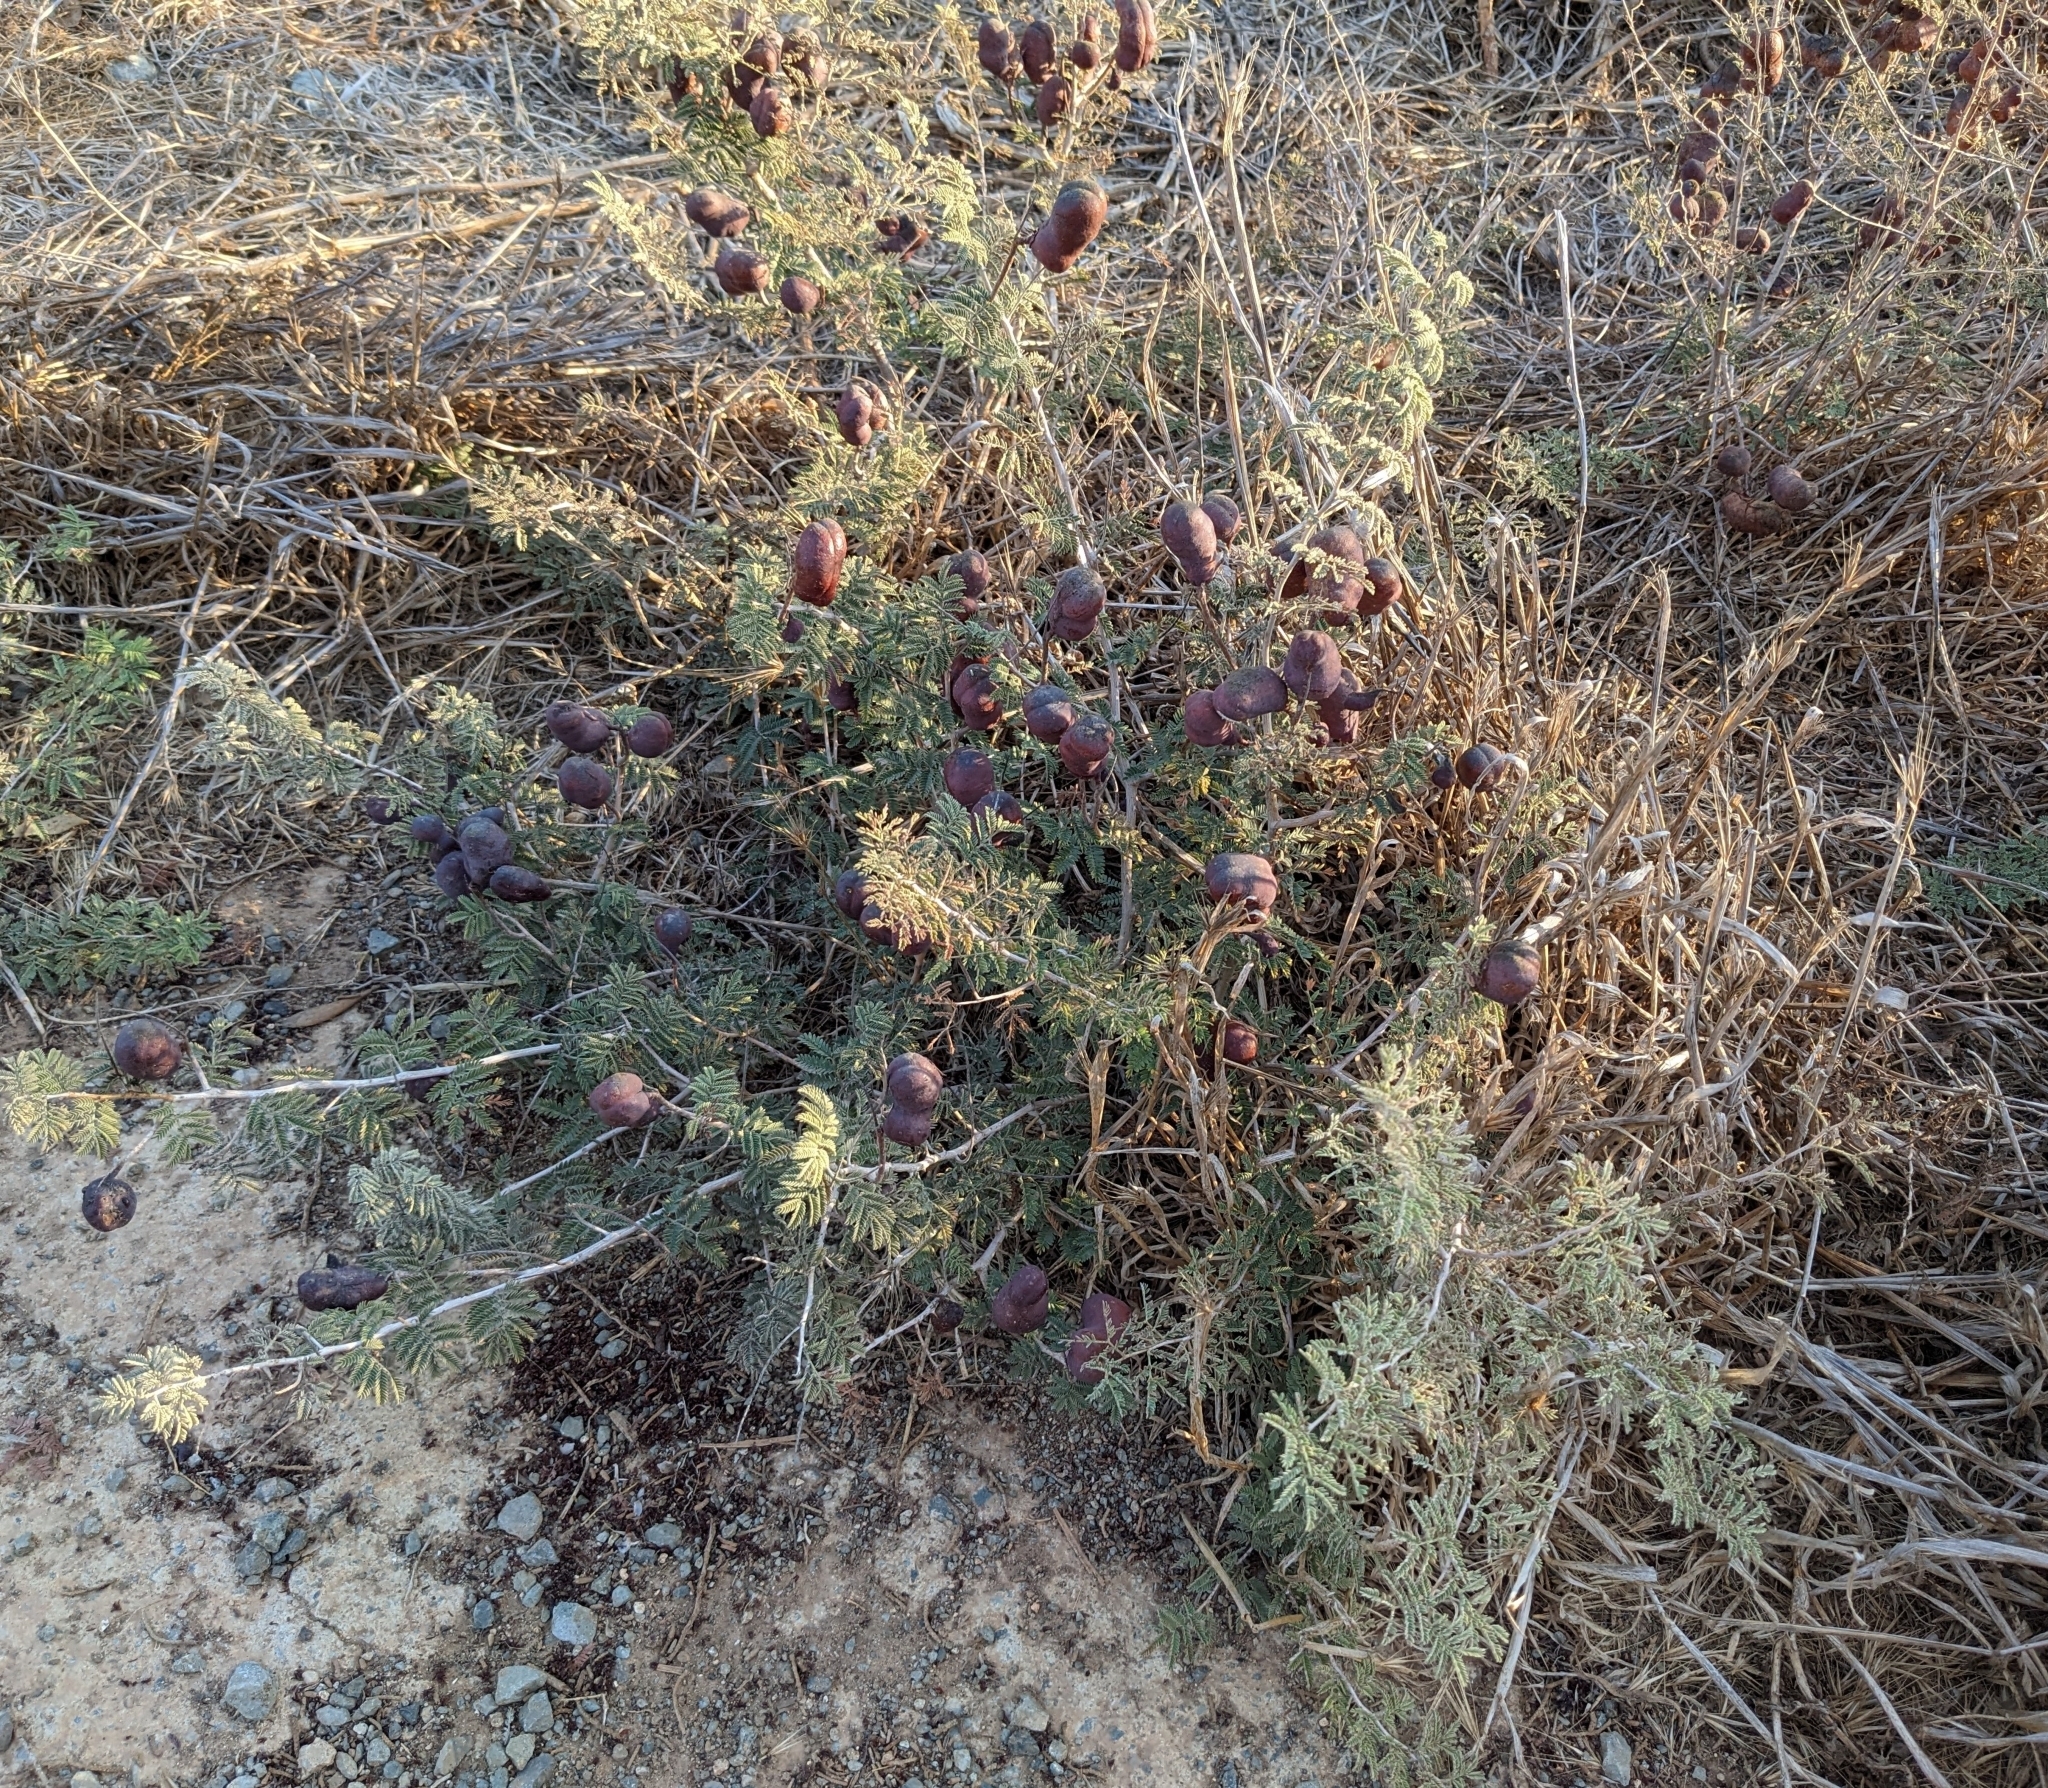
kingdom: Plantae
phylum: Tracheophyta
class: Magnoliopsida
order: Fabales
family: Fabaceae
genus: Prosopis
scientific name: Prosopis farcta
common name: Syrian mesquite
